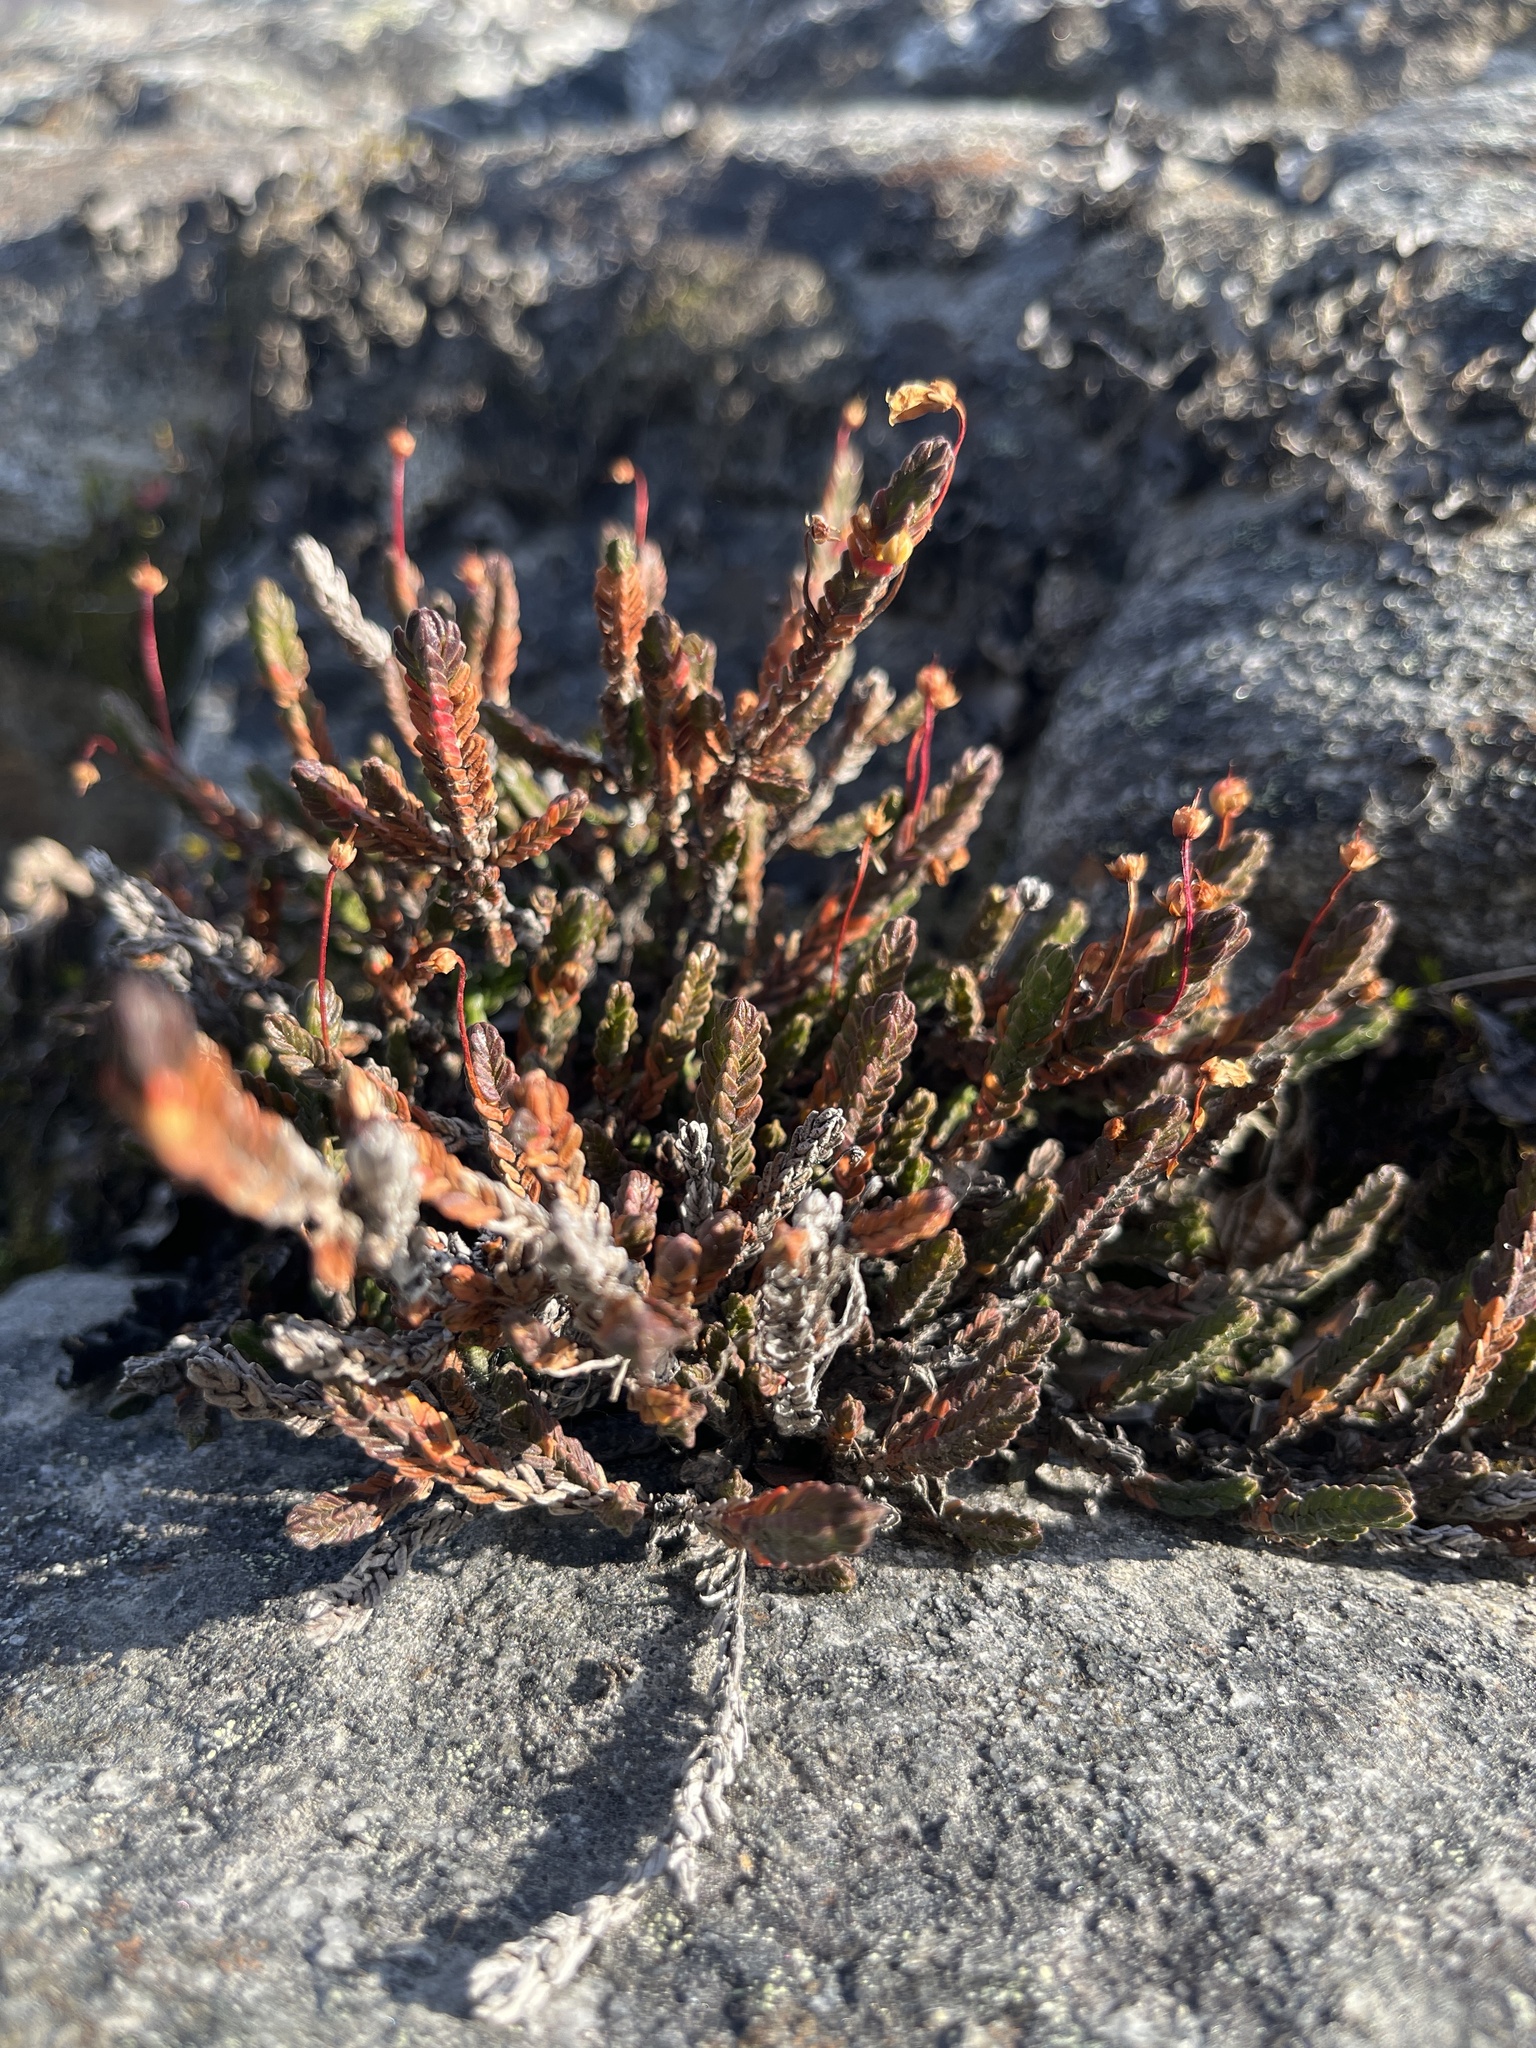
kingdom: Plantae
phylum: Tracheophyta
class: Magnoliopsida
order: Ericales
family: Ericaceae
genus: Cassiope
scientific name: Cassiope tetragona
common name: Arctic bell heather
